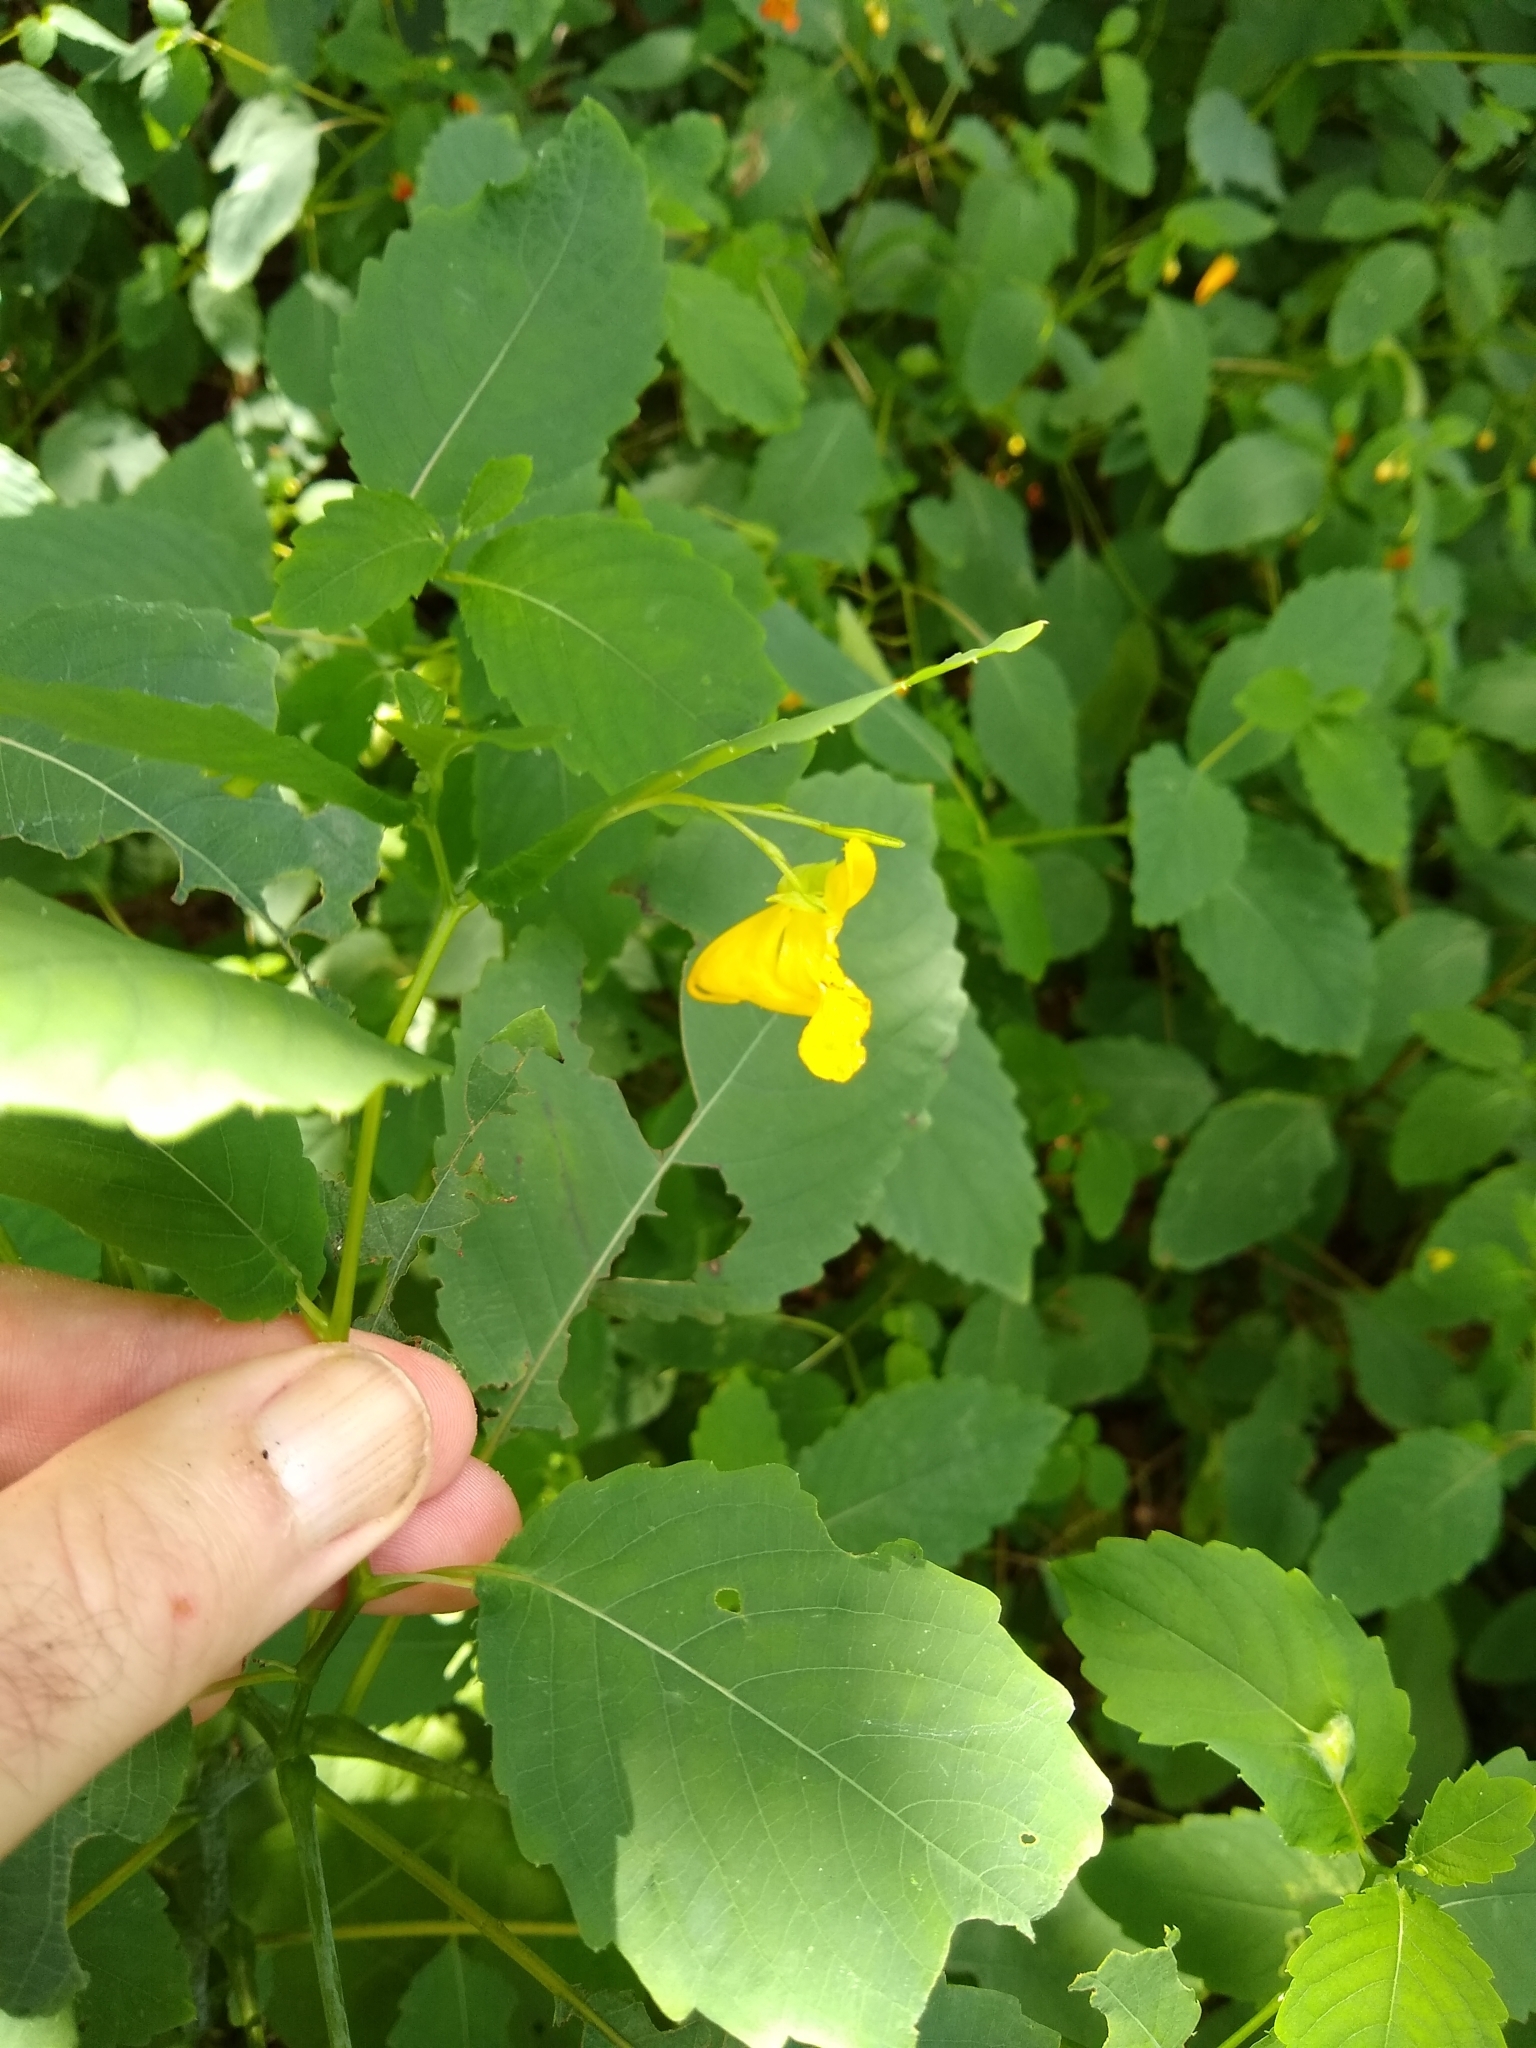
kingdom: Plantae
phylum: Tracheophyta
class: Magnoliopsida
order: Ericales
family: Balsaminaceae
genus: Impatiens
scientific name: Impatiens pallida
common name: Pale snapweed
